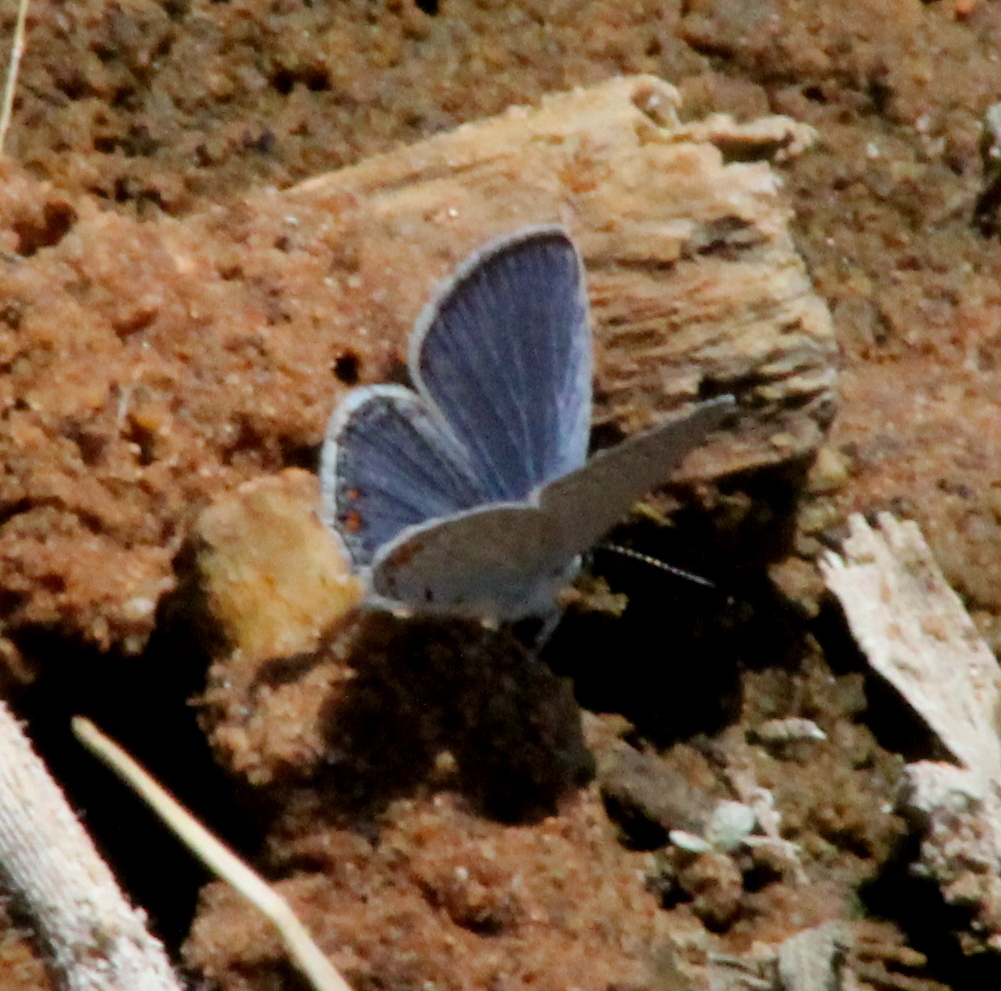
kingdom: Animalia
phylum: Arthropoda
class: Insecta
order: Lepidoptera
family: Lycaenidae
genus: Elkalyce
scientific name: Elkalyce comyntas
